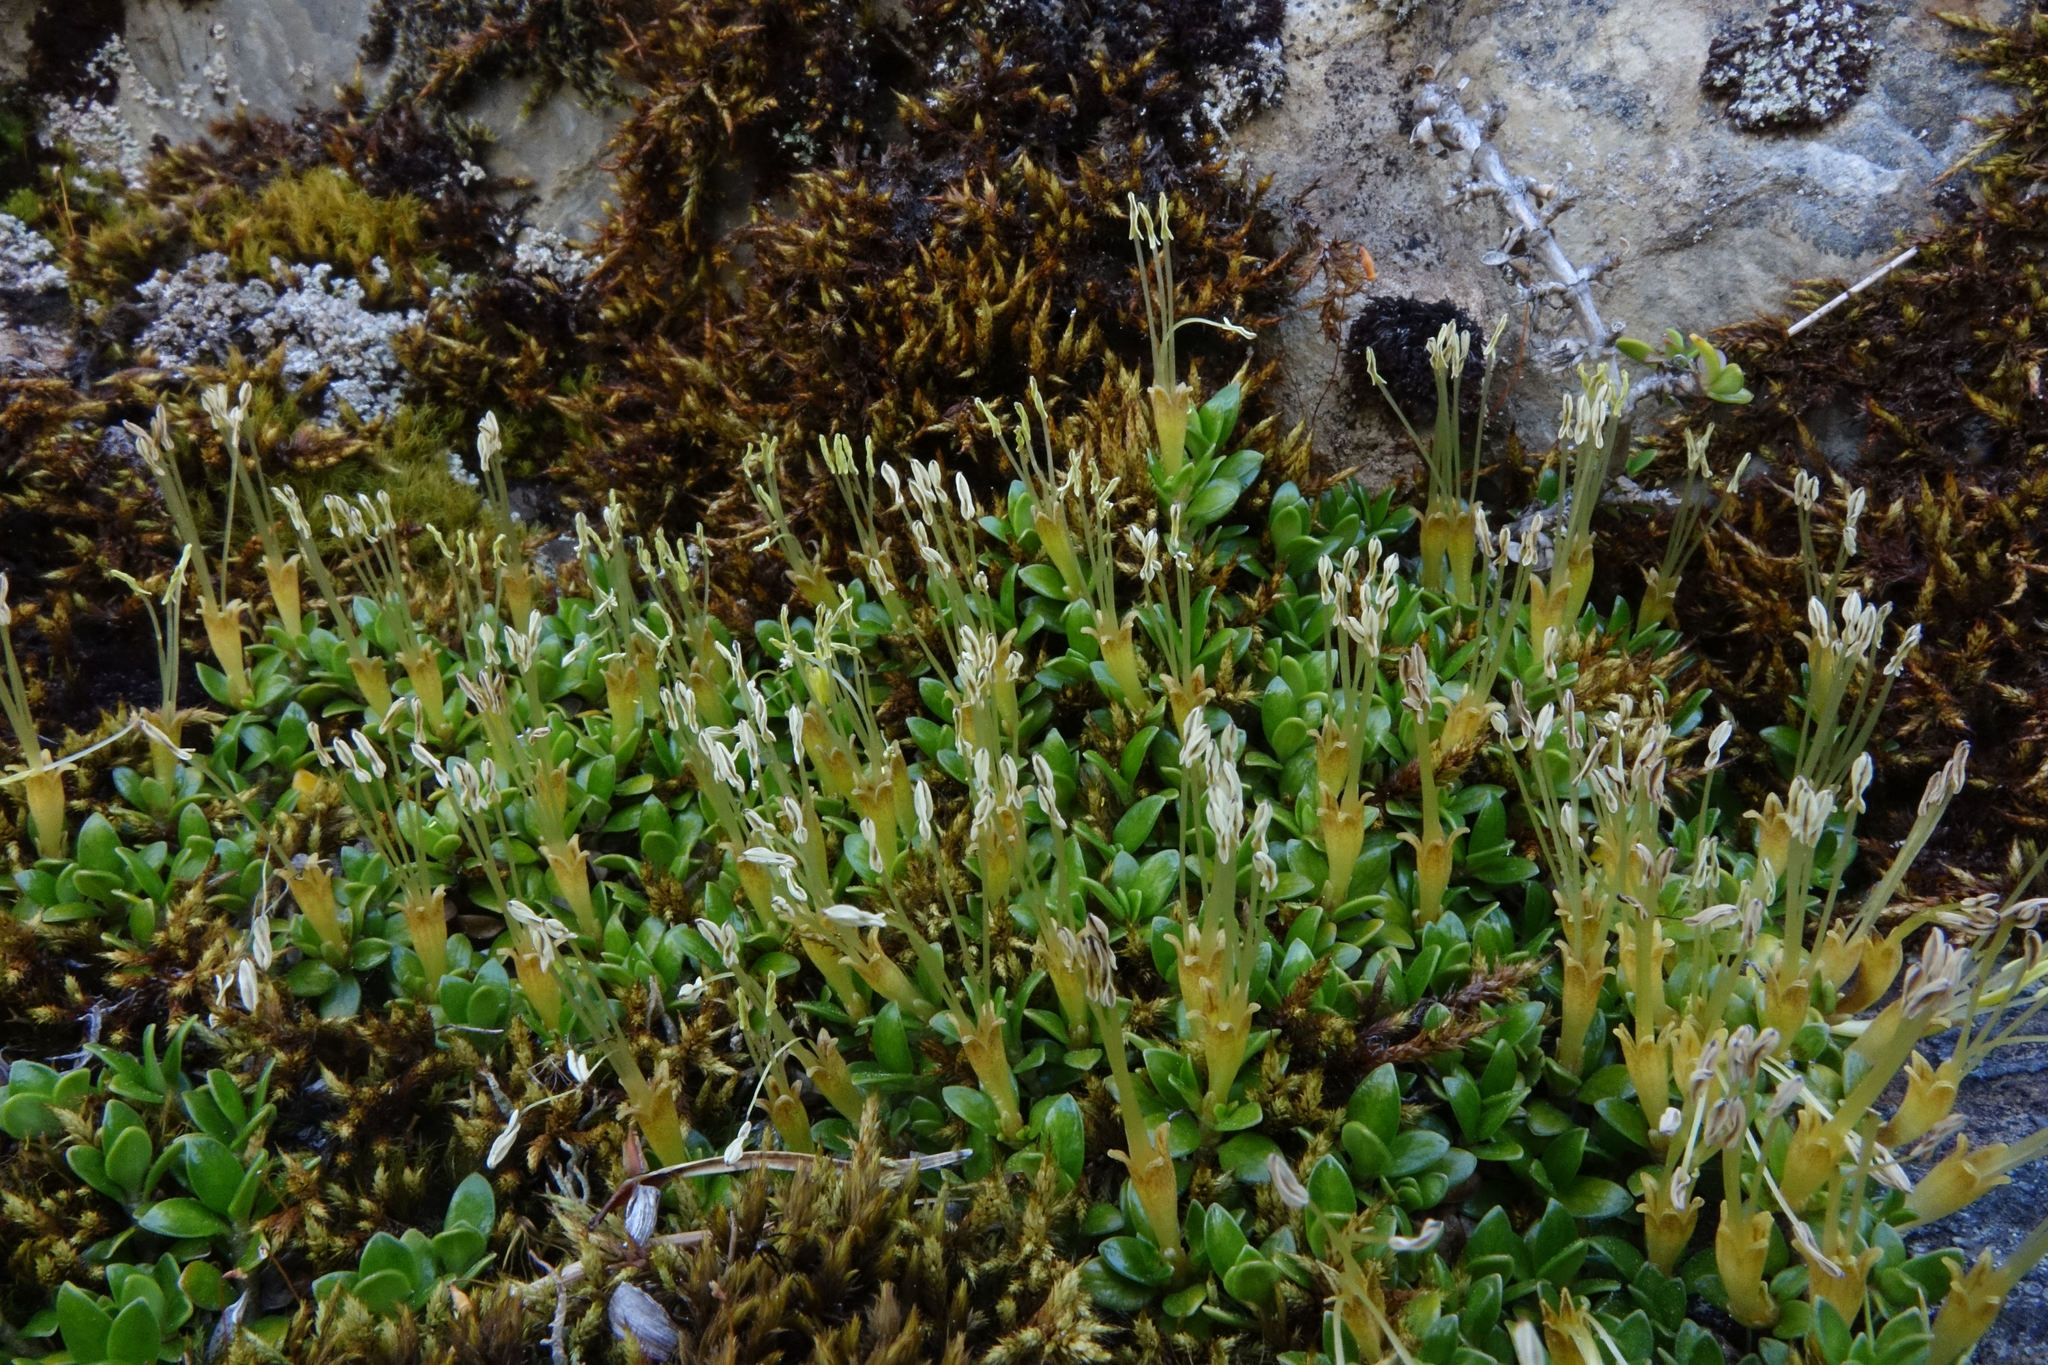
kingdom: Plantae
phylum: Tracheophyta
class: Magnoliopsida
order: Gentianales
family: Rubiaceae
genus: Coprosma
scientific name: Coprosma perpusilla
